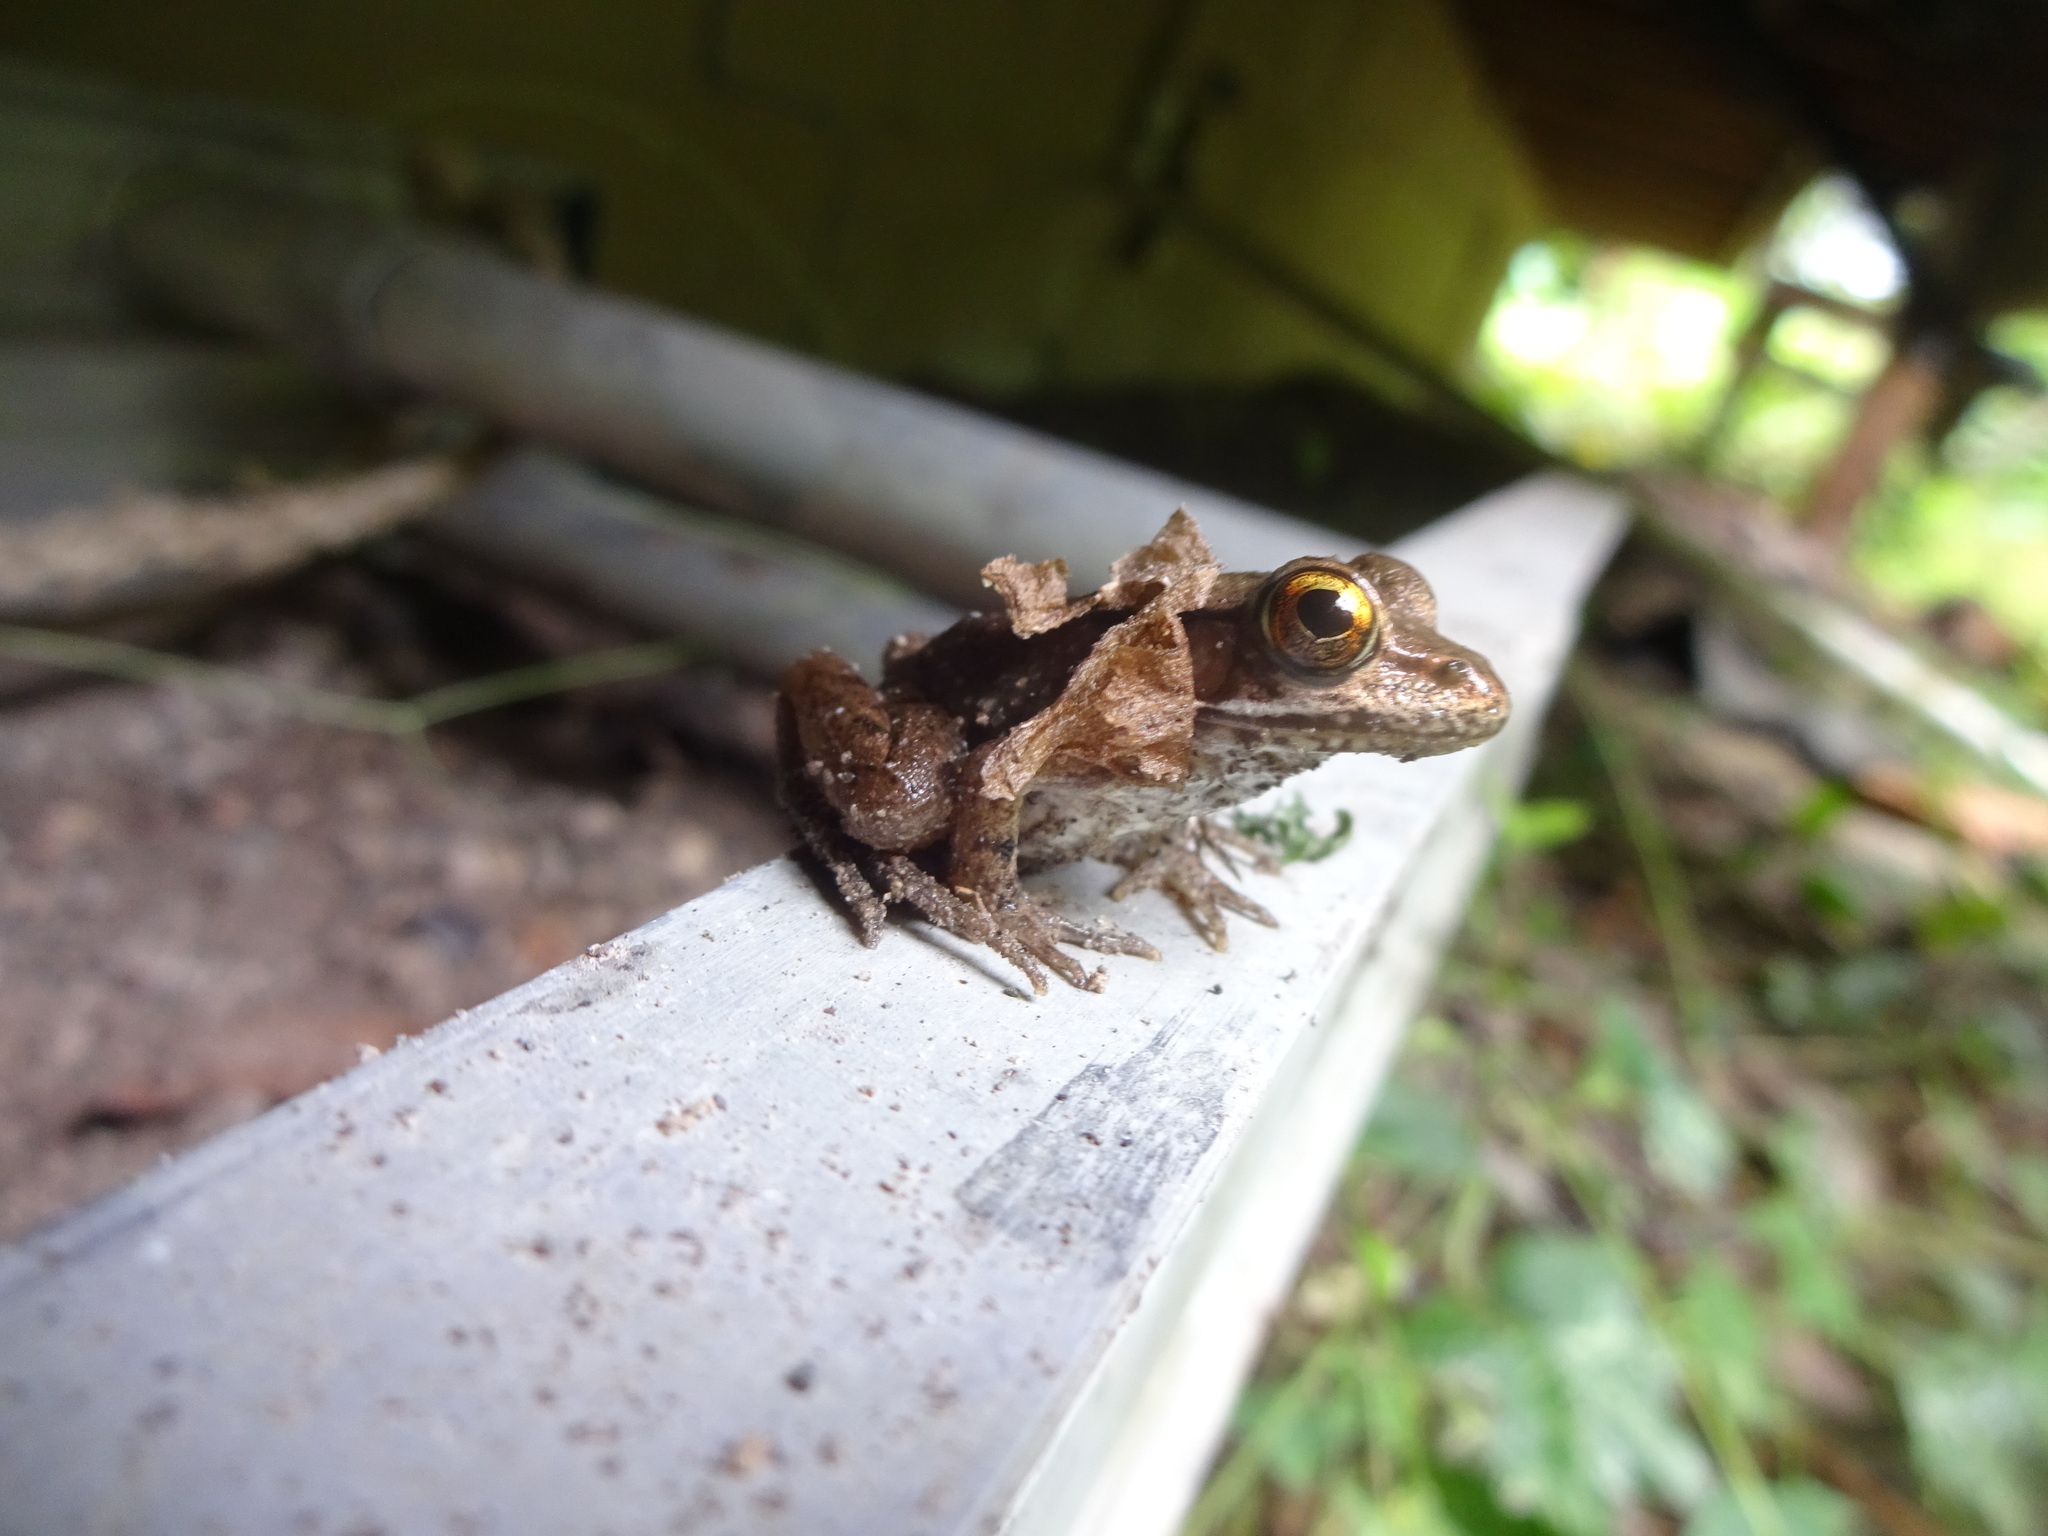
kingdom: Animalia
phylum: Chordata
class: Amphibia
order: Anura
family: Ranidae
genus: Lithobates
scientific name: Lithobates clamitans
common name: Green frog
